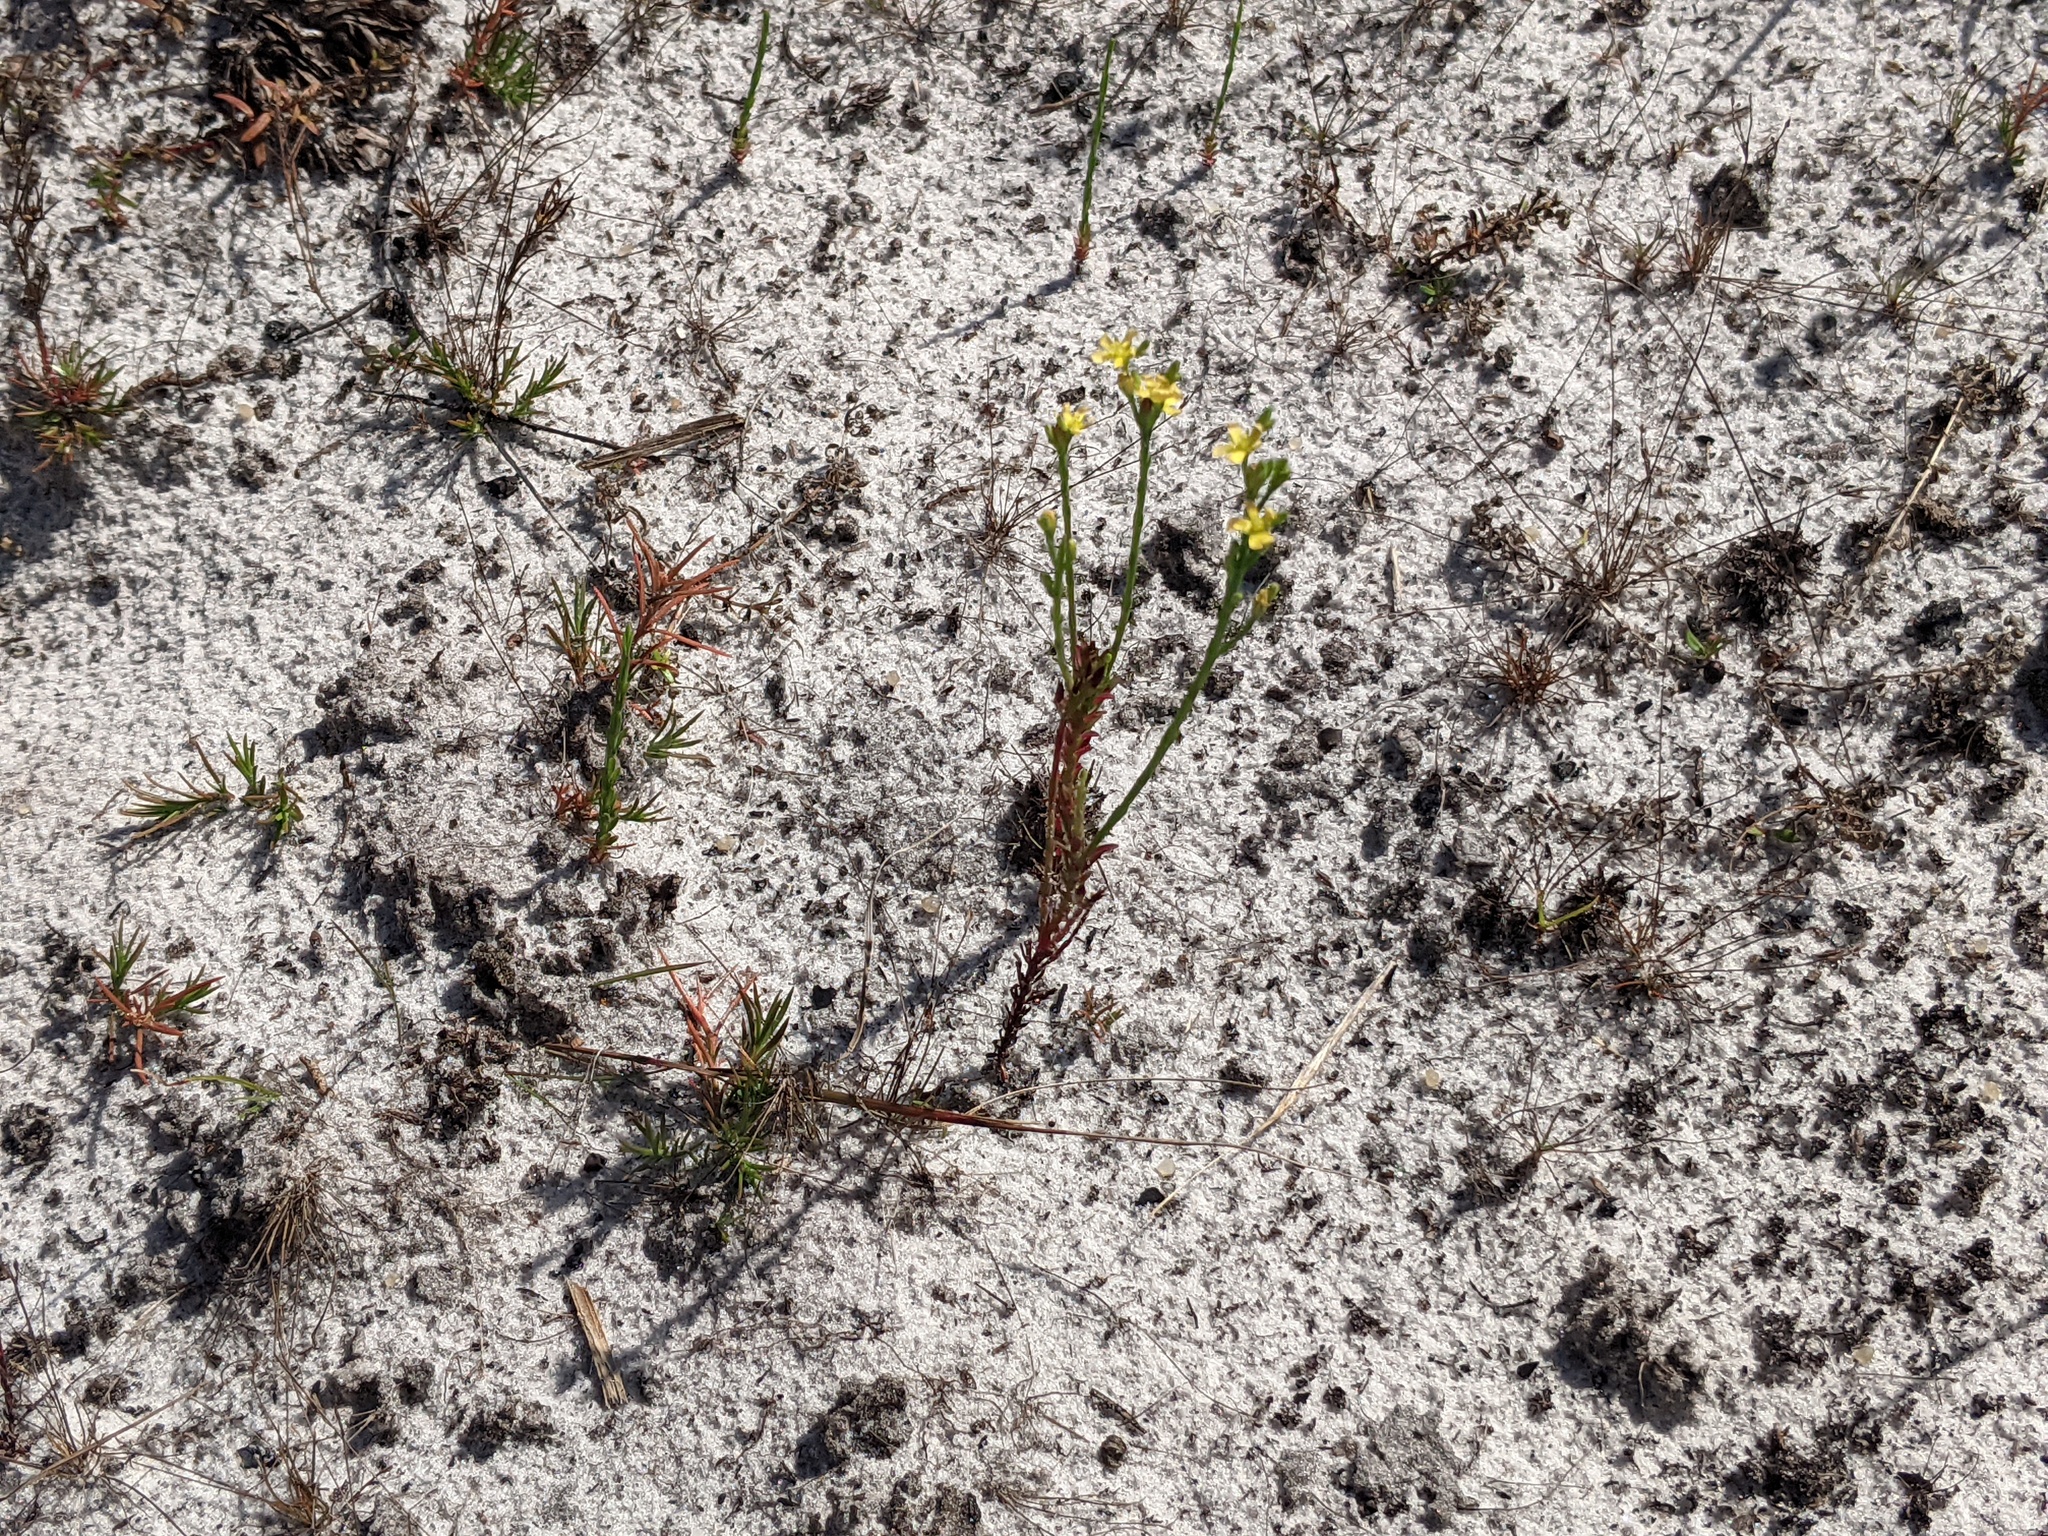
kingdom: Plantae
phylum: Tracheophyta
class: Magnoliopsida
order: Malpighiales
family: Hypericaceae
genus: Hypericum
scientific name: Hypericum gentianoides
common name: Gentian-leaved st. john's-wort
